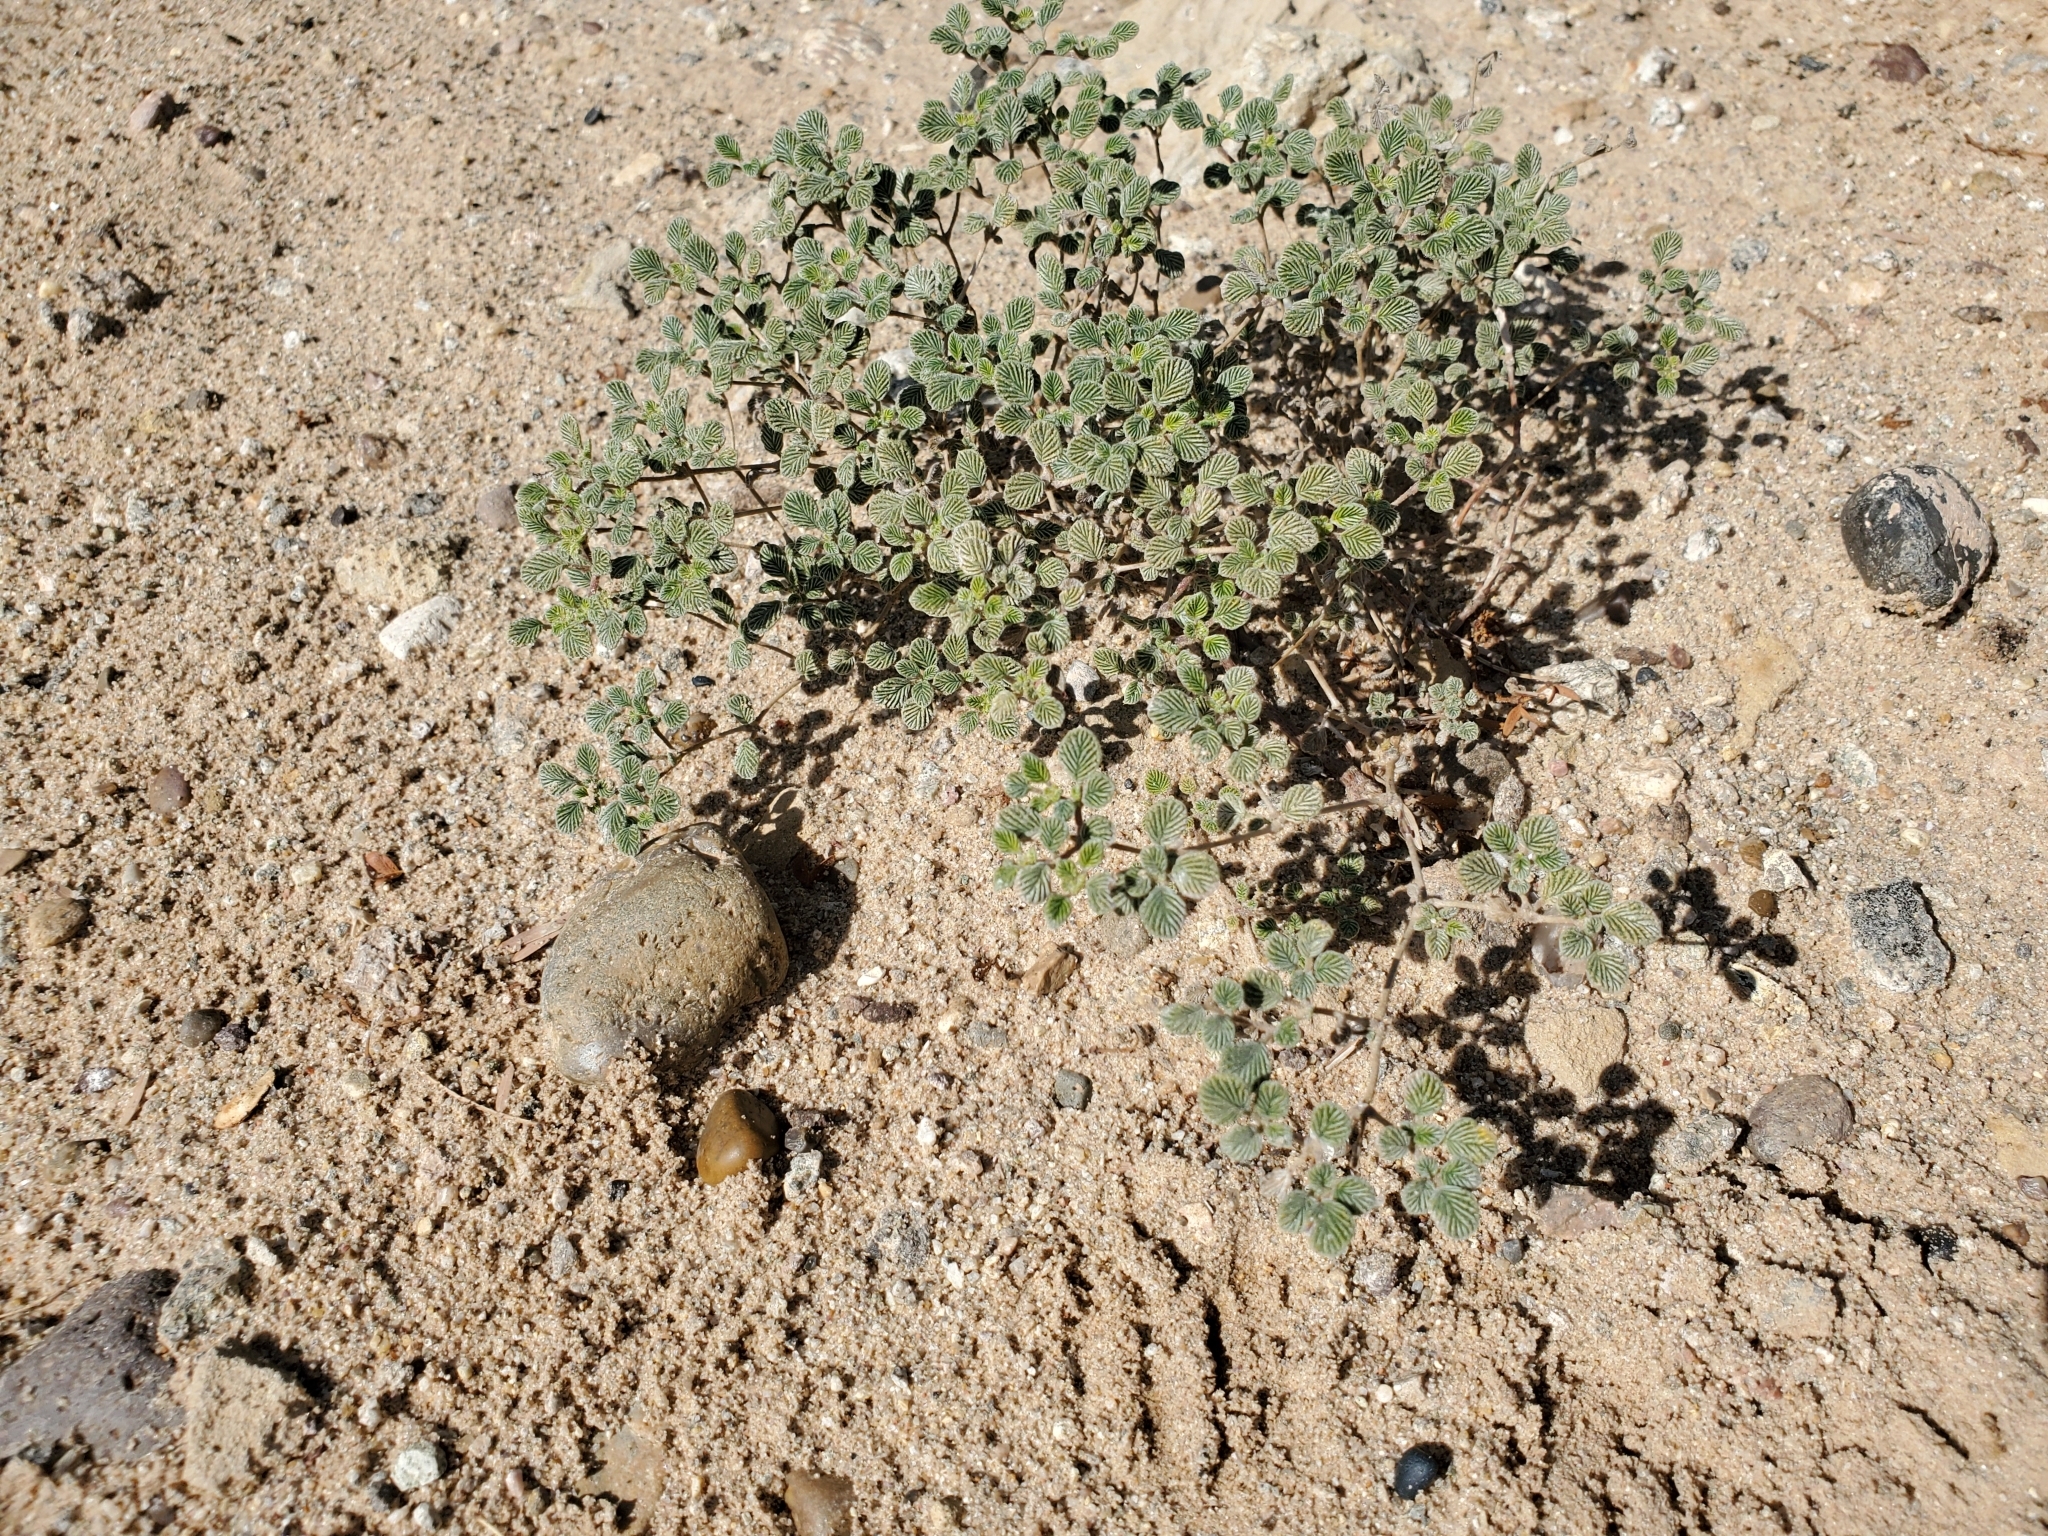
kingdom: Plantae
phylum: Tracheophyta
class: Magnoliopsida
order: Boraginales
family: Ehretiaceae
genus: Tiquilia
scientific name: Tiquilia plicata
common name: Fan-leaf tiquilia
